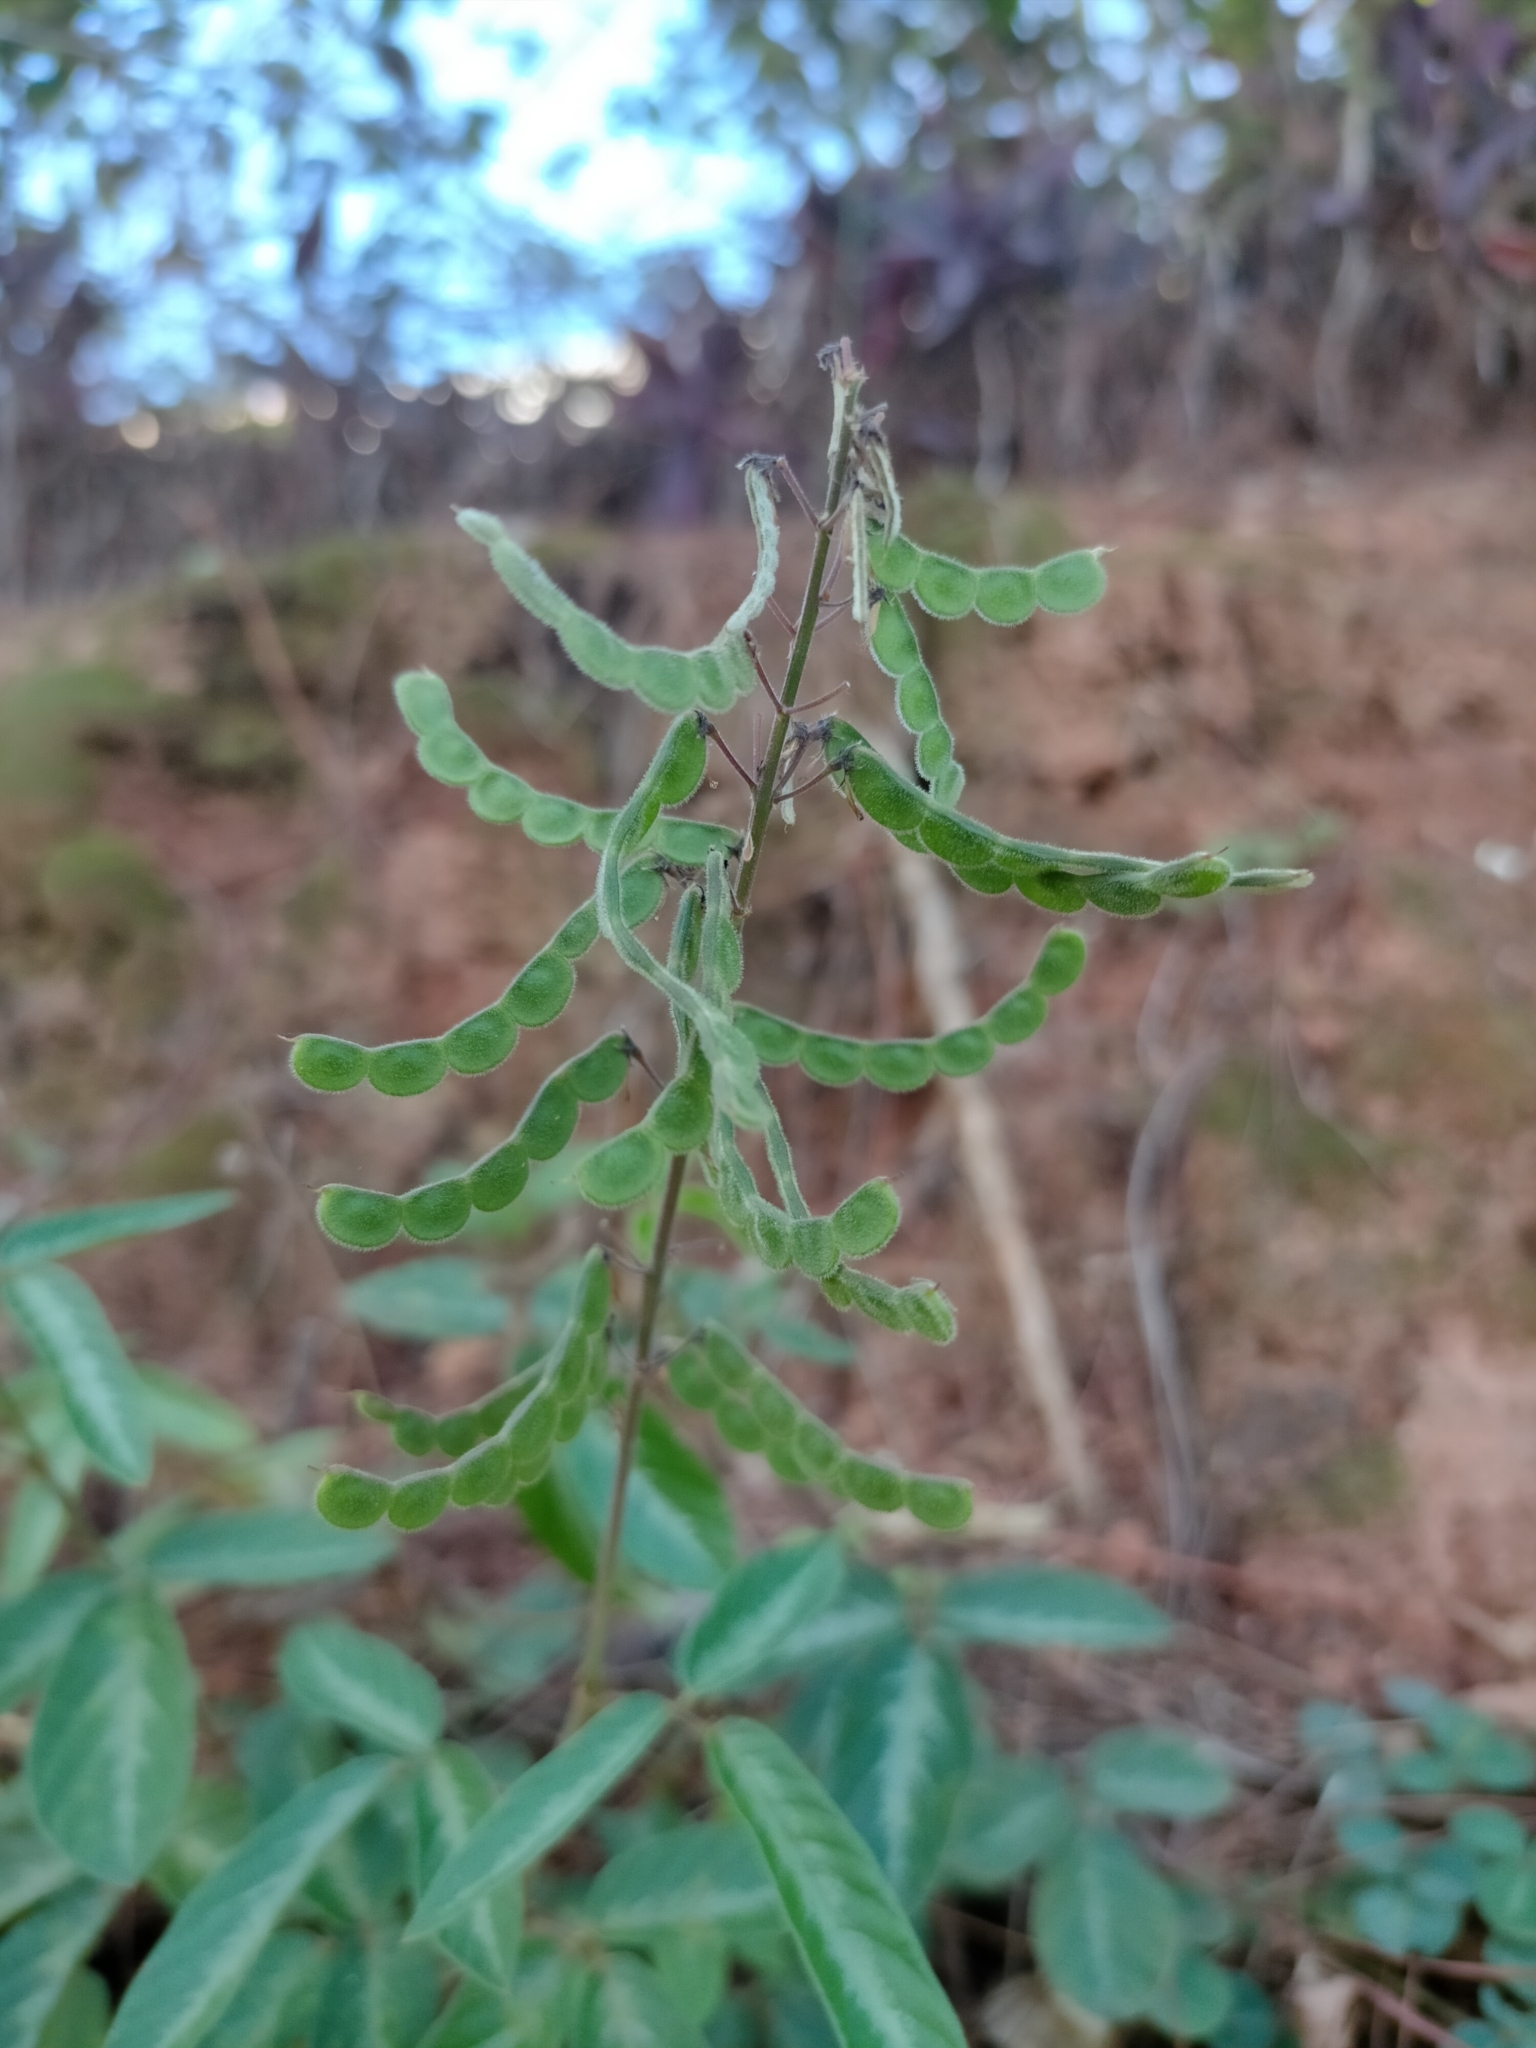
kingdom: Plantae
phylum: Tracheophyta
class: Magnoliopsida
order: Fabales
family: Fabaceae
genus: Desmodium
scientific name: Desmodium uncinatum
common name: Silverleaf desmodium
